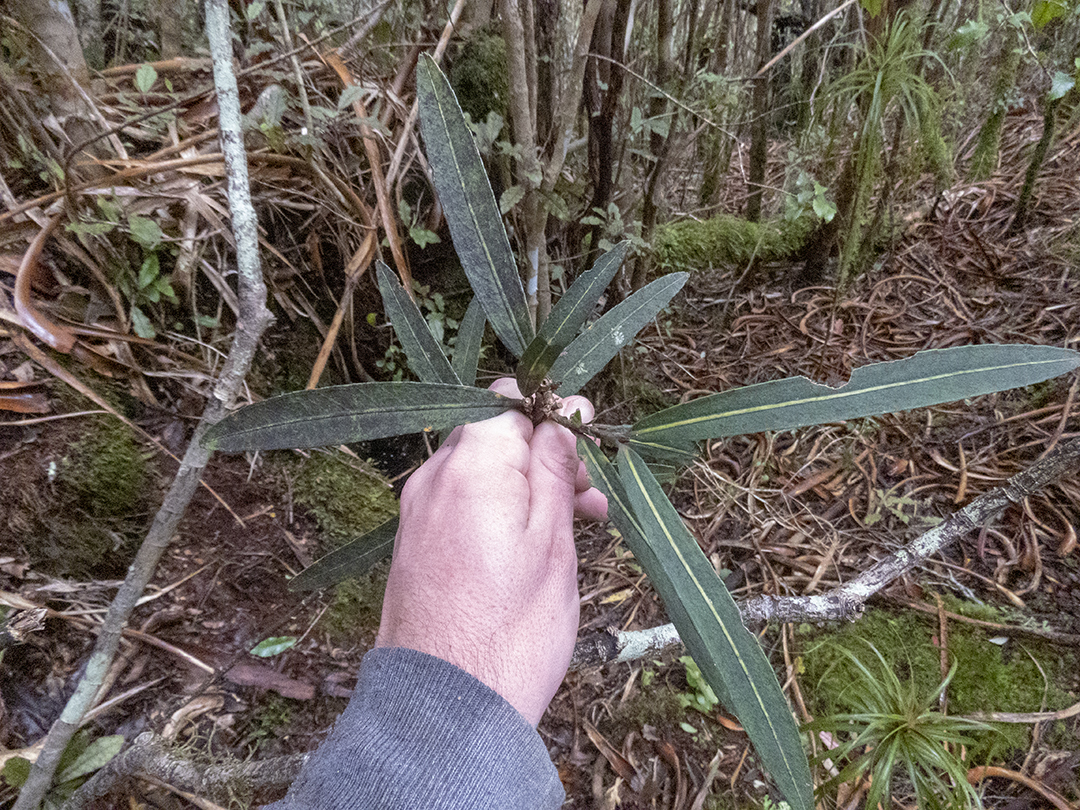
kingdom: Plantae
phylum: Tracheophyta
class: Magnoliopsida
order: Apiales
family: Araliaceae
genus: Pseudopanax
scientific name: Pseudopanax linearis
